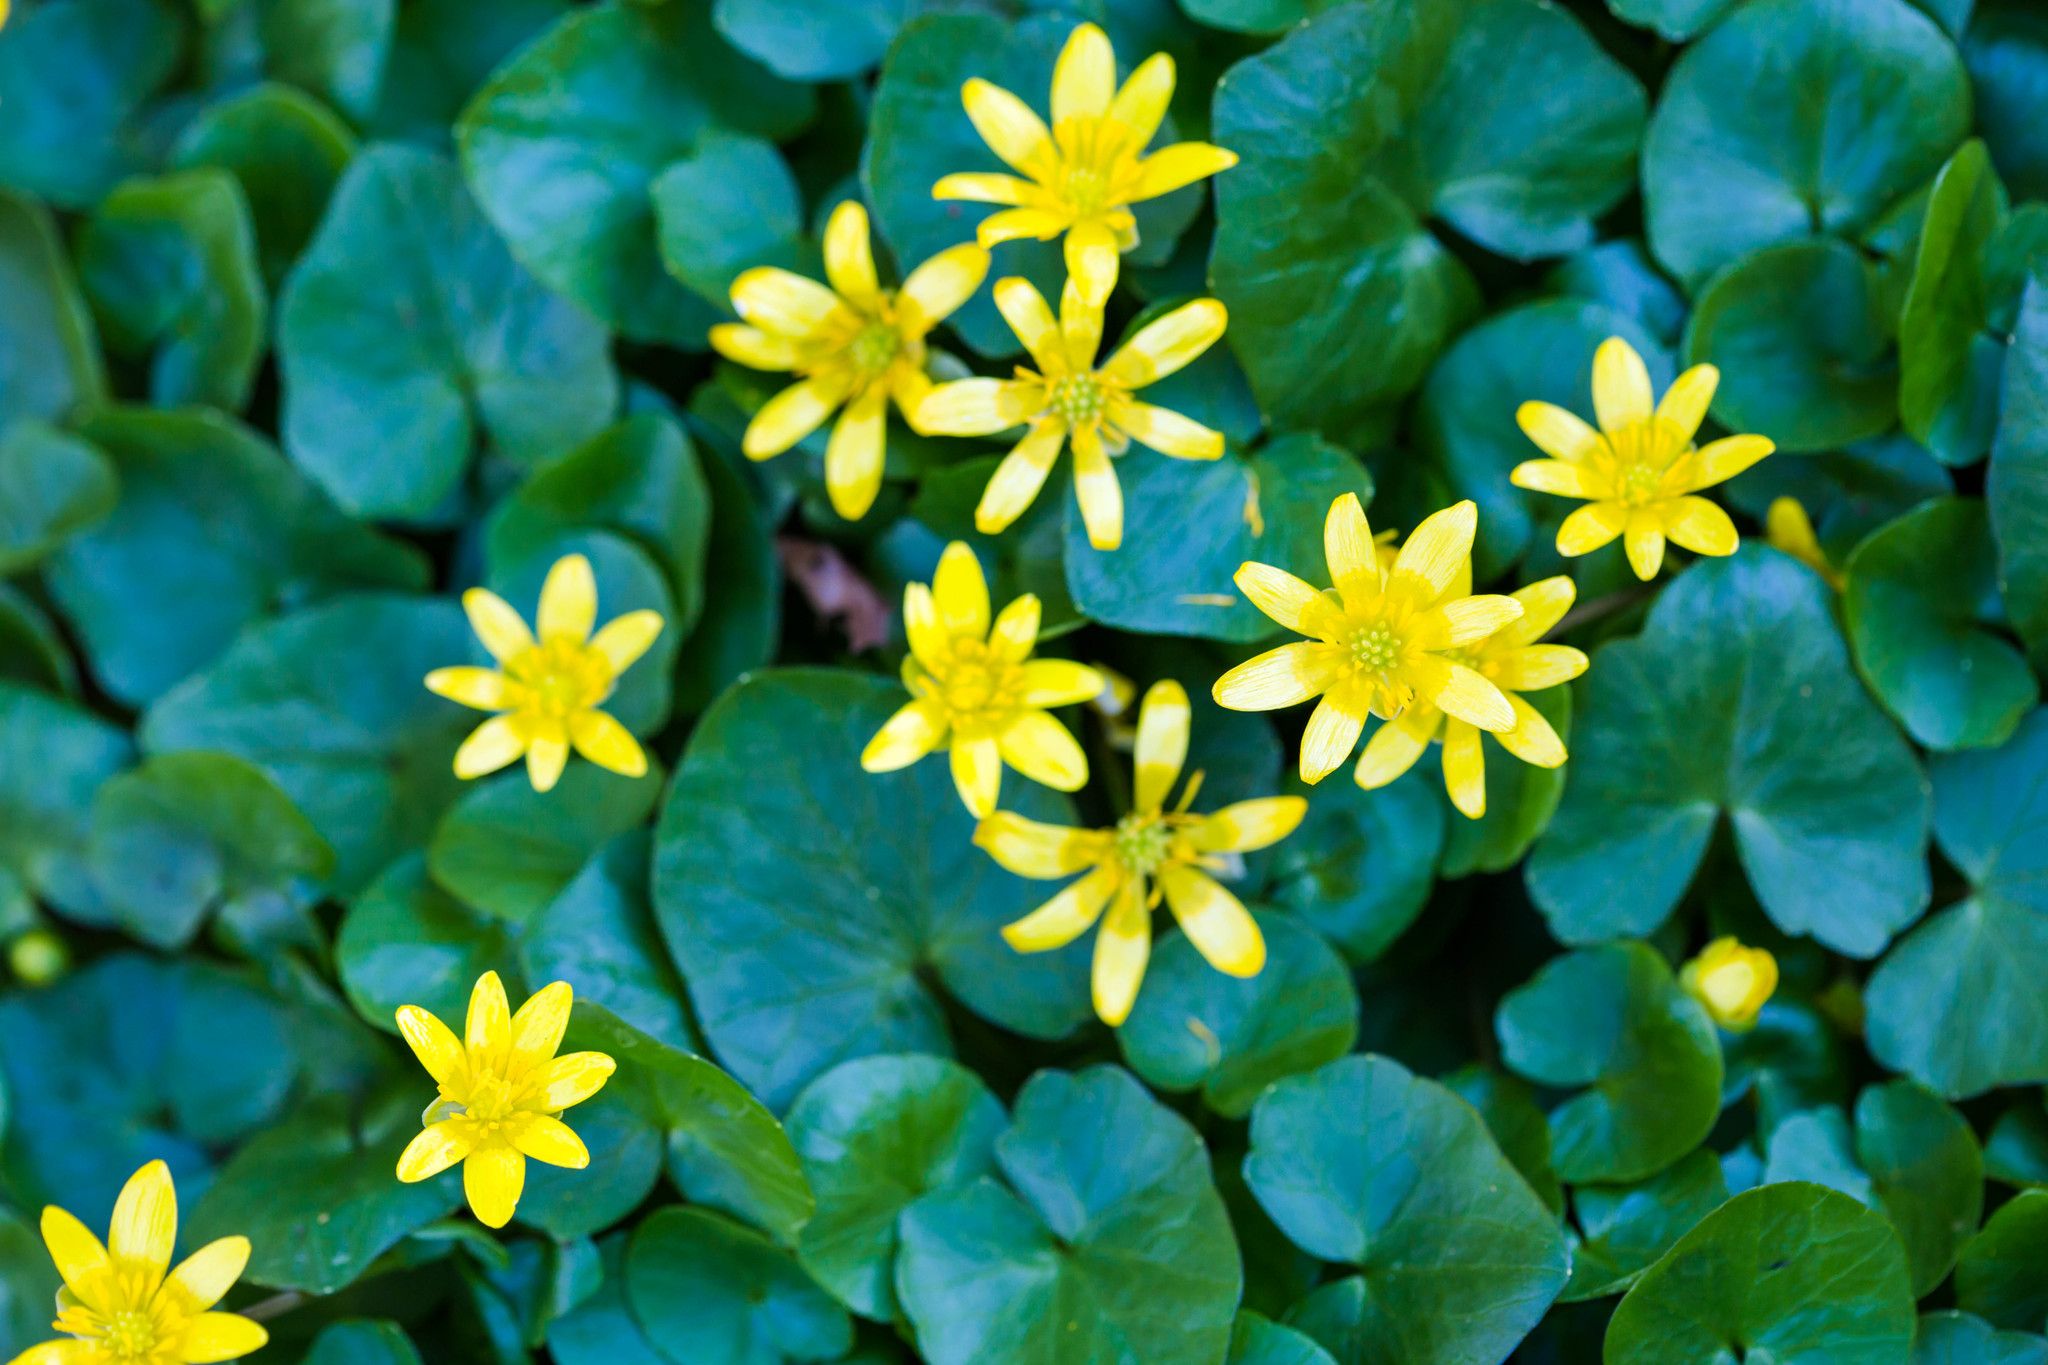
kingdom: Plantae
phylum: Tracheophyta
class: Magnoliopsida
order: Ranunculales
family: Ranunculaceae
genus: Ficaria
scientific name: Ficaria verna
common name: Lesser celandine
